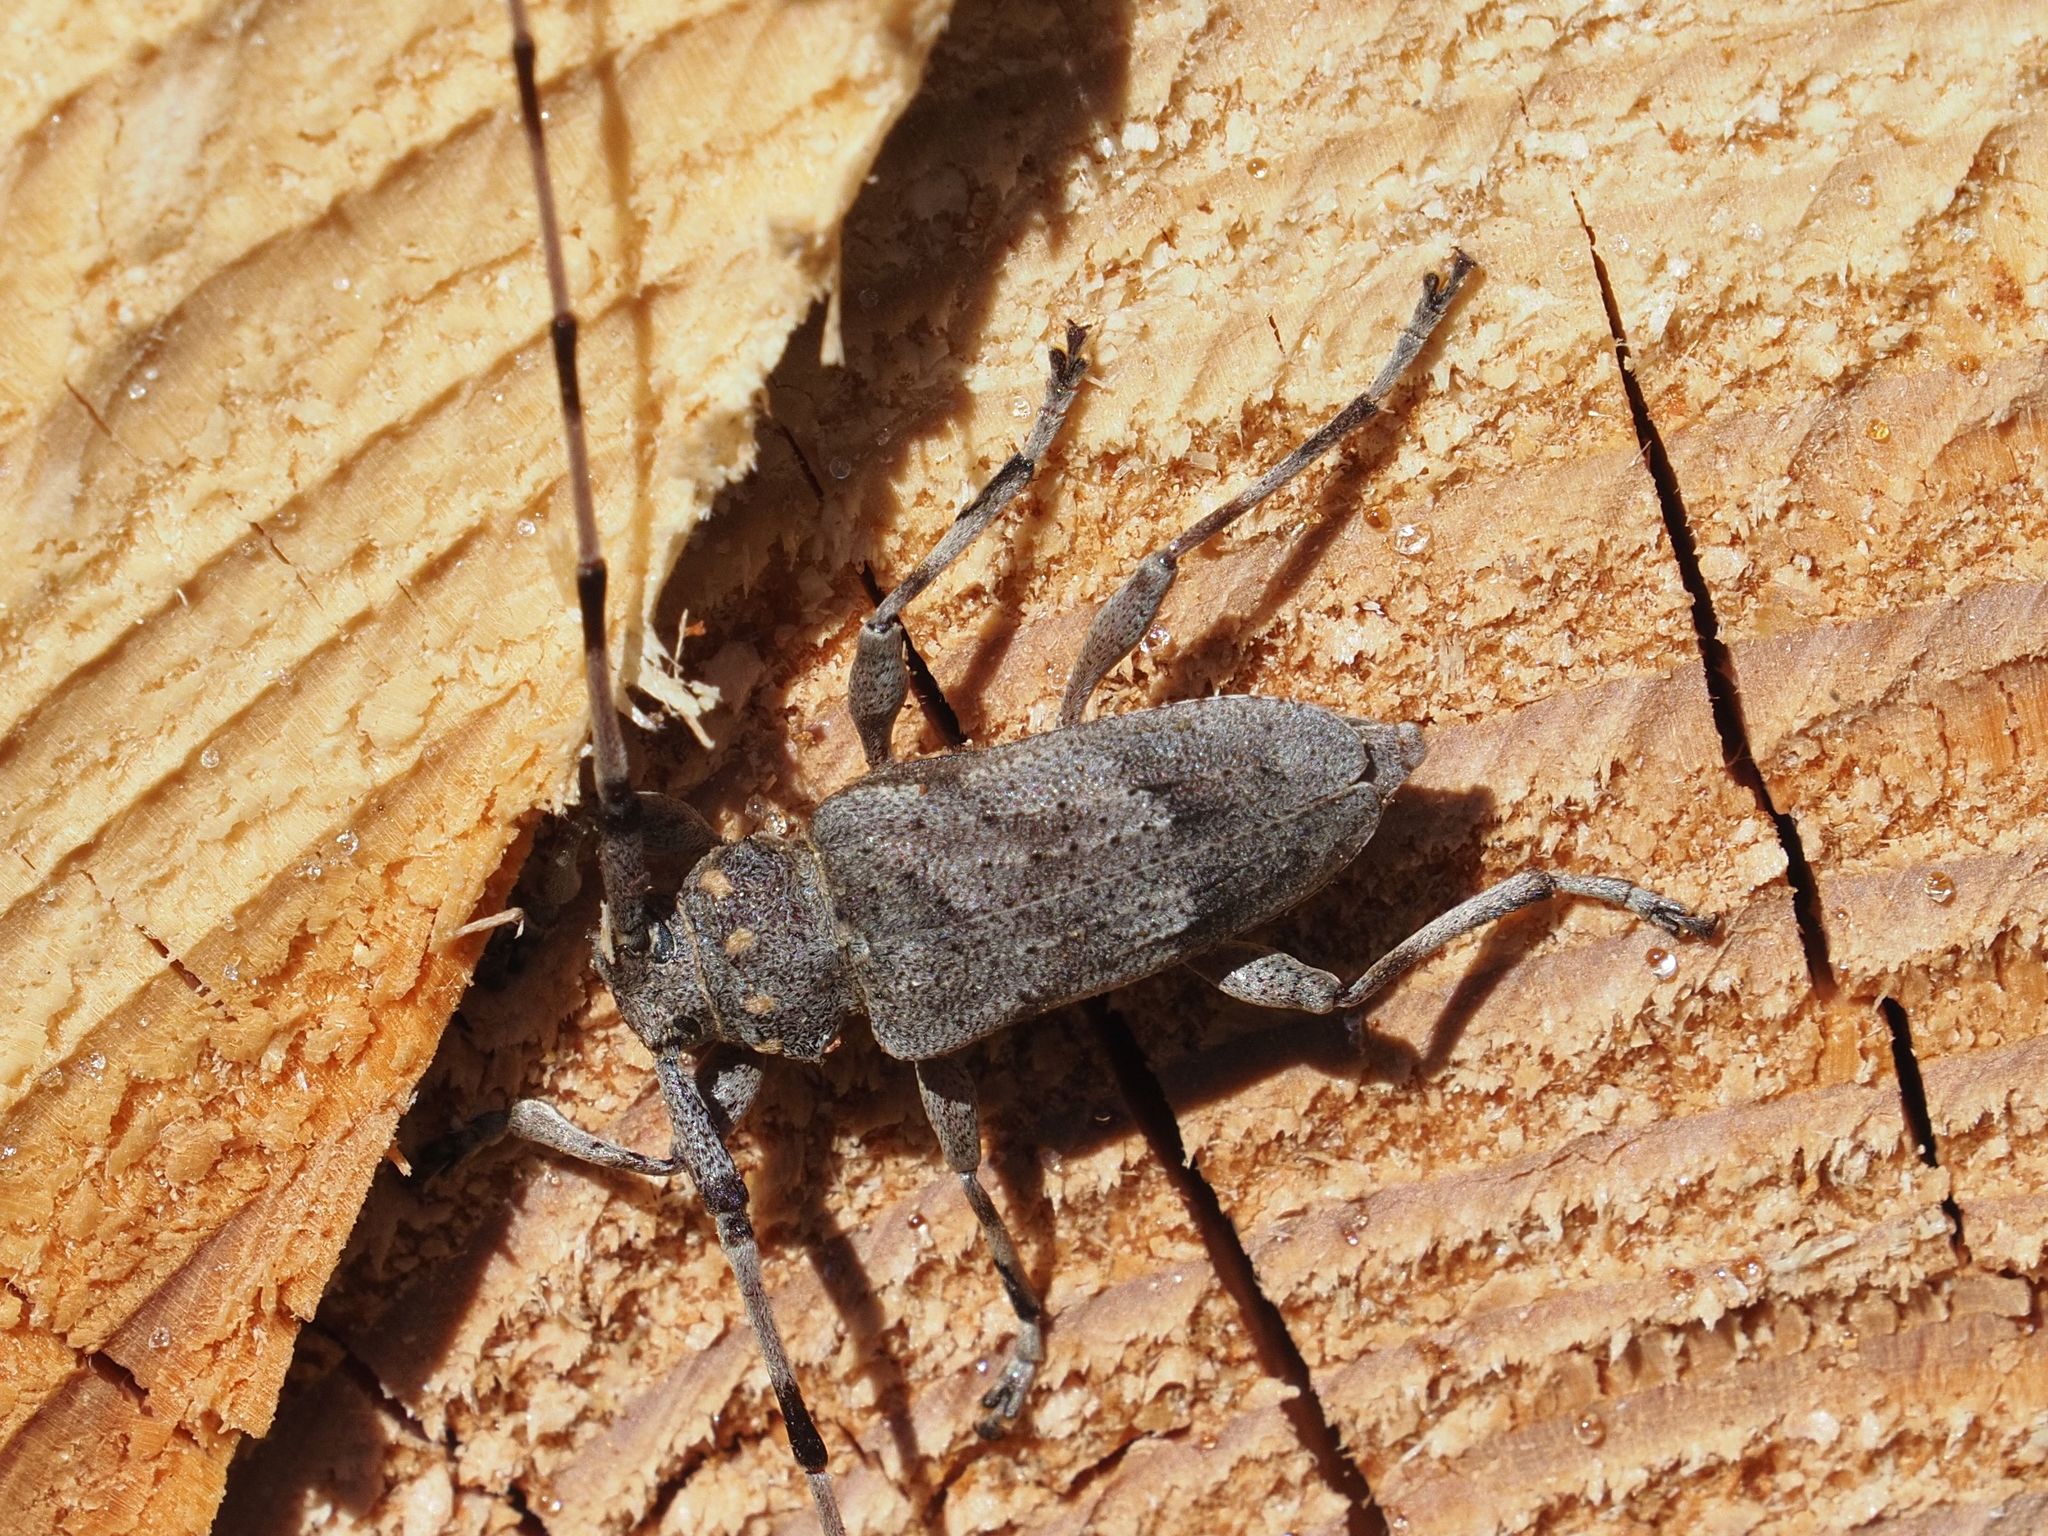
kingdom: Animalia
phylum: Arthropoda
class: Insecta
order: Coleoptera
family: Cerambycidae
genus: Acanthocinus
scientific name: Acanthocinus aedilis
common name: Timberman beetle
